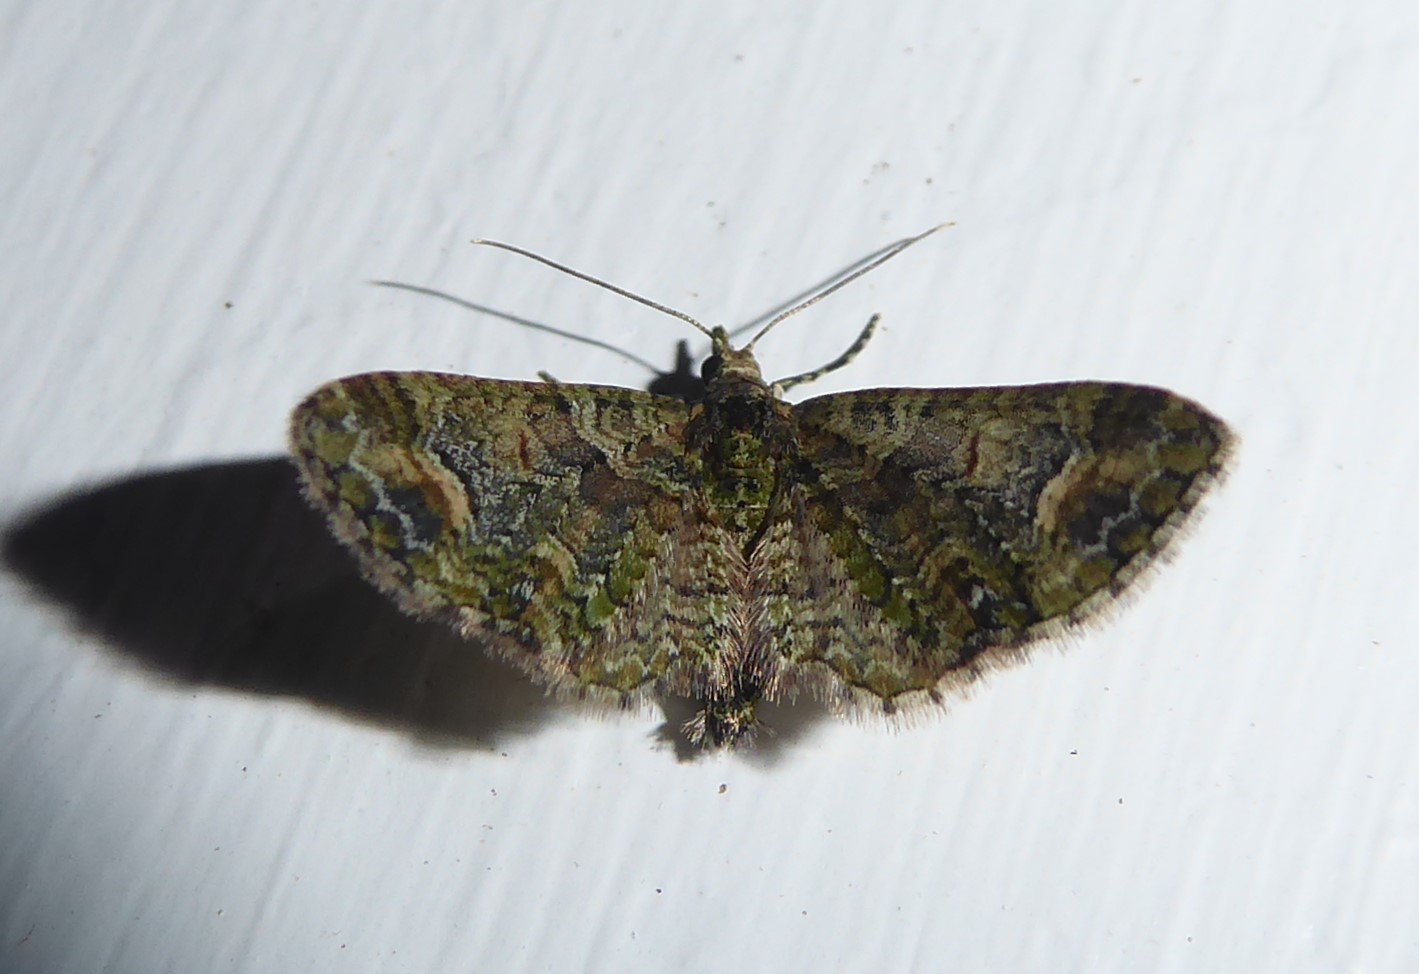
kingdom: Animalia
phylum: Arthropoda
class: Insecta
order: Lepidoptera
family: Geometridae
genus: Idaea
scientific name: Idaea mutanda
